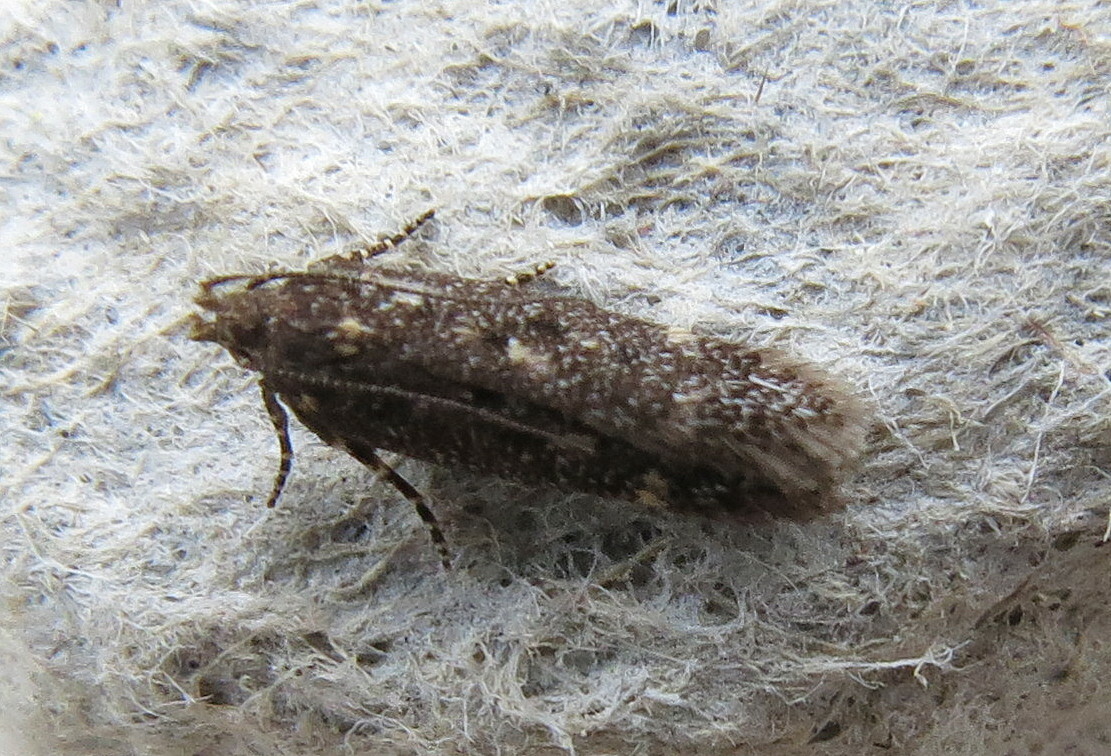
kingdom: Animalia
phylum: Arthropoda
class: Insecta
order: Lepidoptera
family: Gelechiidae
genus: Bryotropha
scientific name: Bryotropha affinis
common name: Dark groundling
